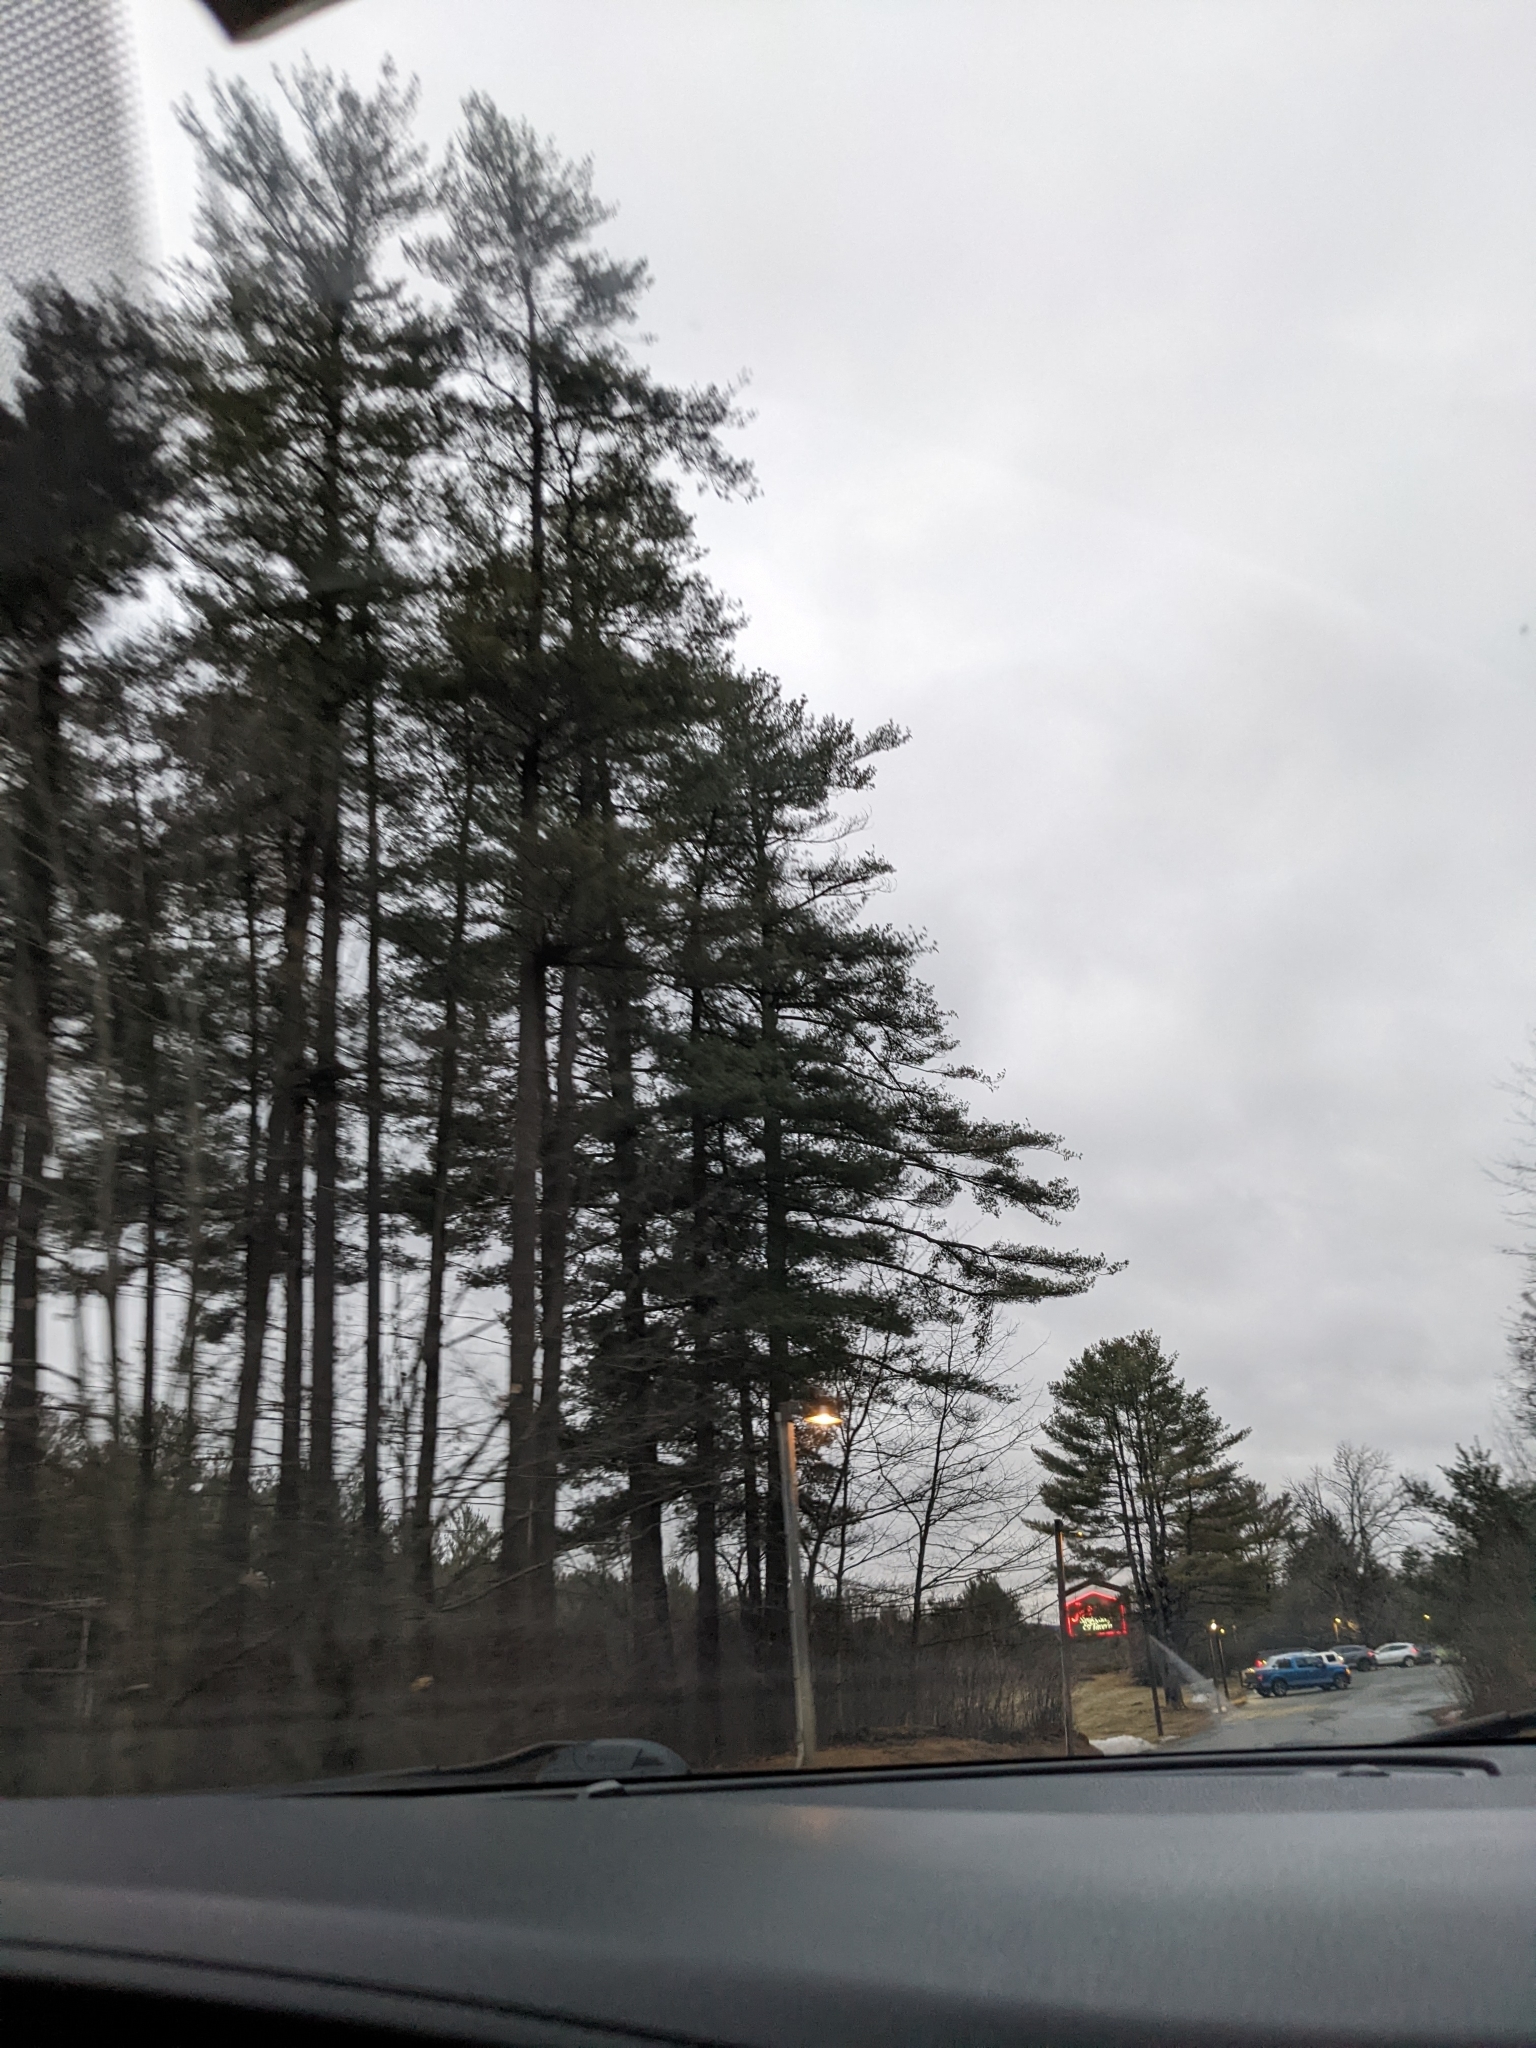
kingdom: Plantae
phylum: Tracheophyta
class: Pinopsida
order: Pinales
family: Pinaceae
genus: Pinus
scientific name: Pinus strobus
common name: Weymouth pine
